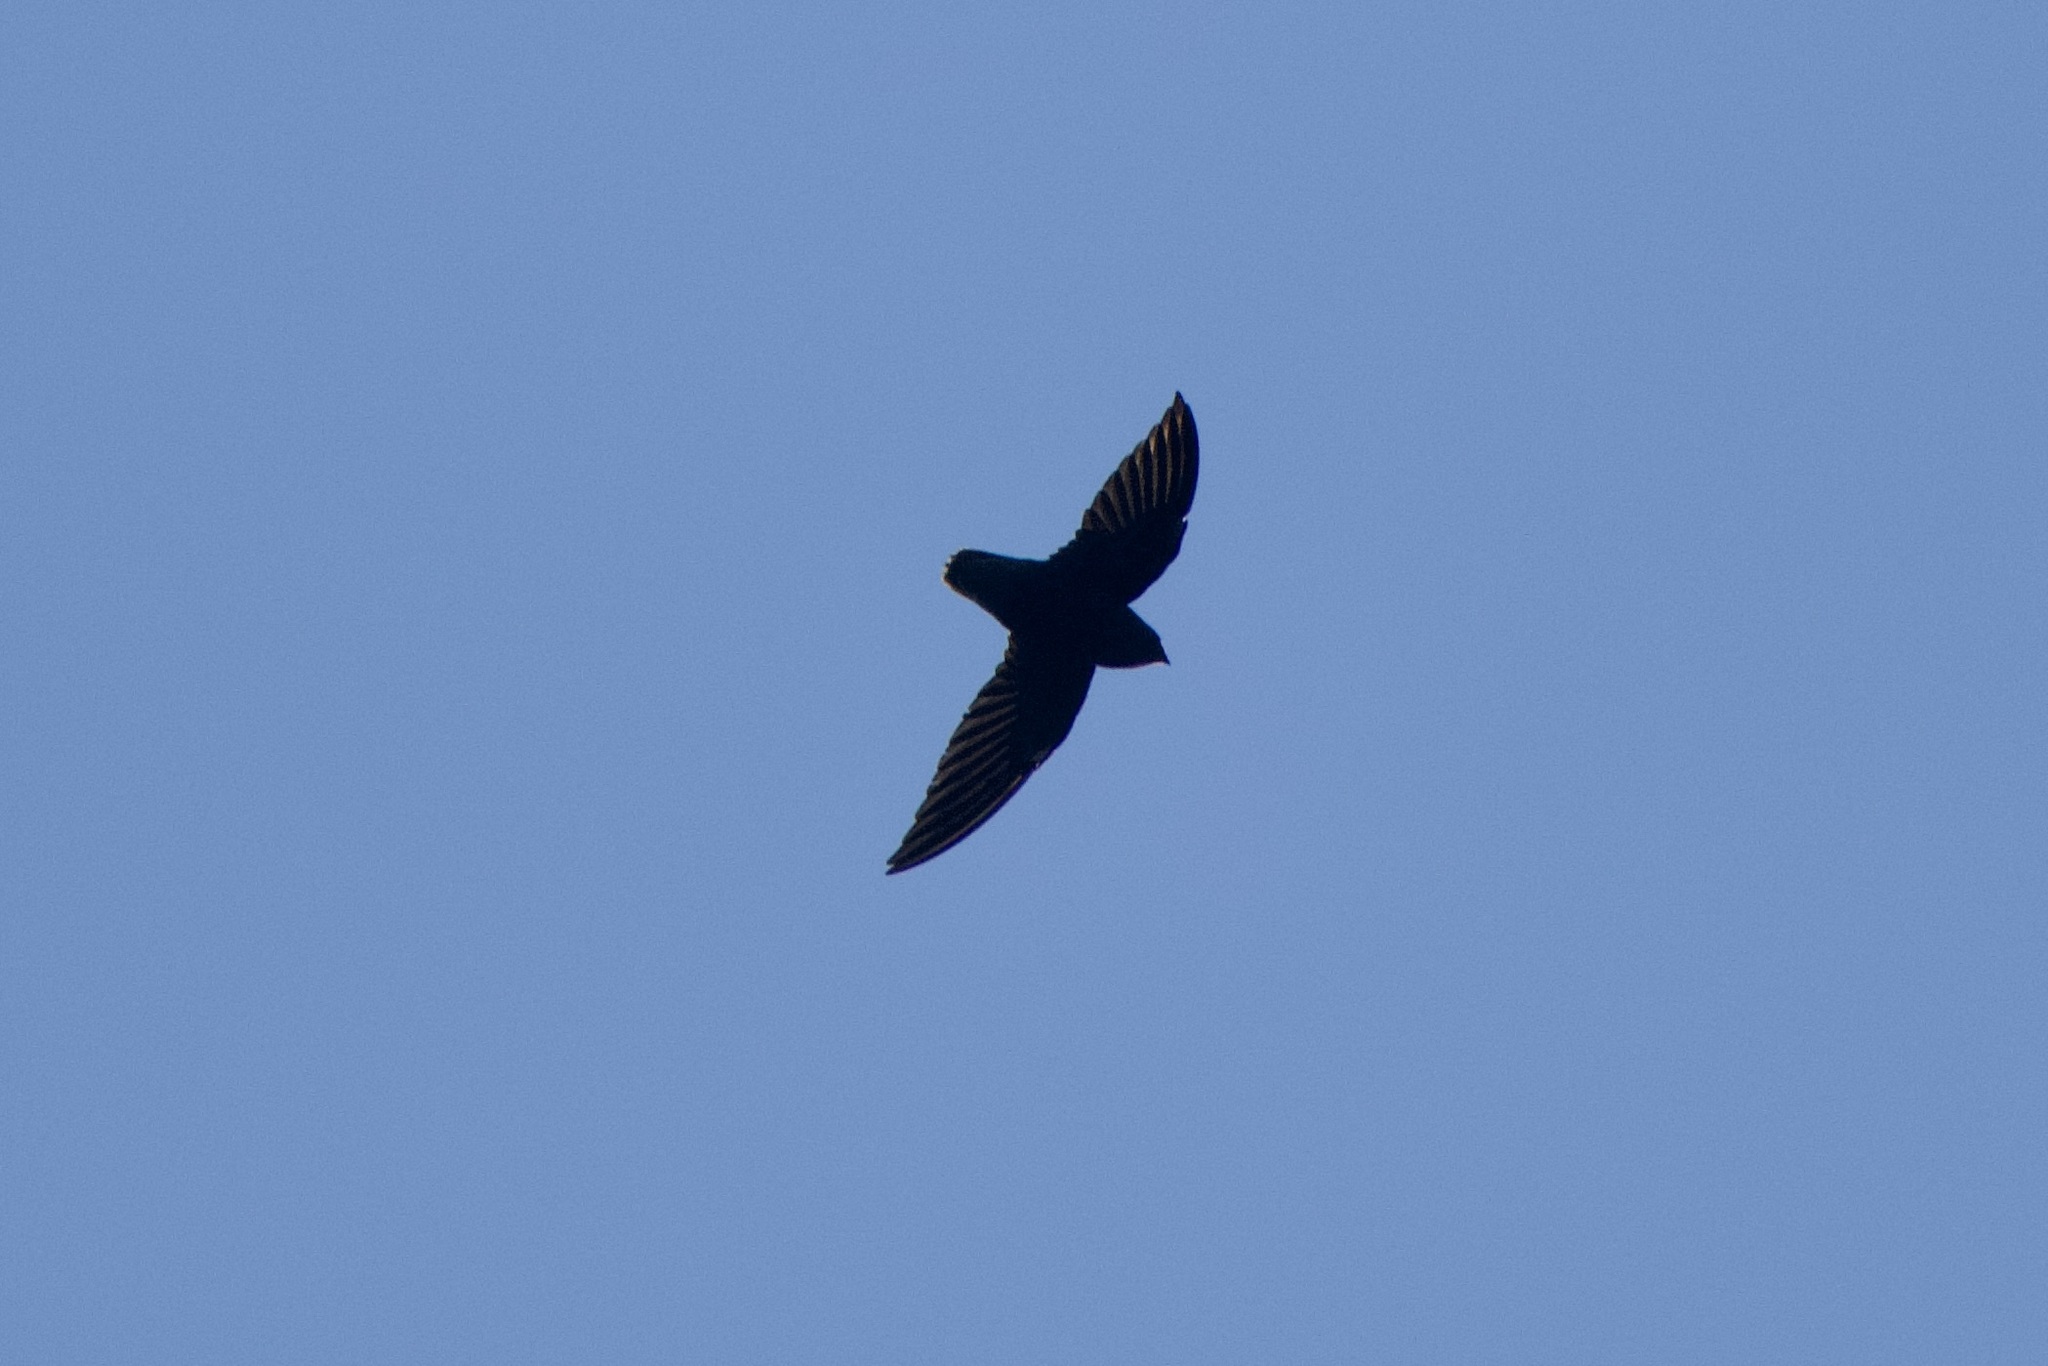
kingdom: Animalia
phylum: Chordata
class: Aves
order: Apodiformes
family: Apodidae
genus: Chaetura
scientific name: Chaetura brachyura
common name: Short-tailed swift
